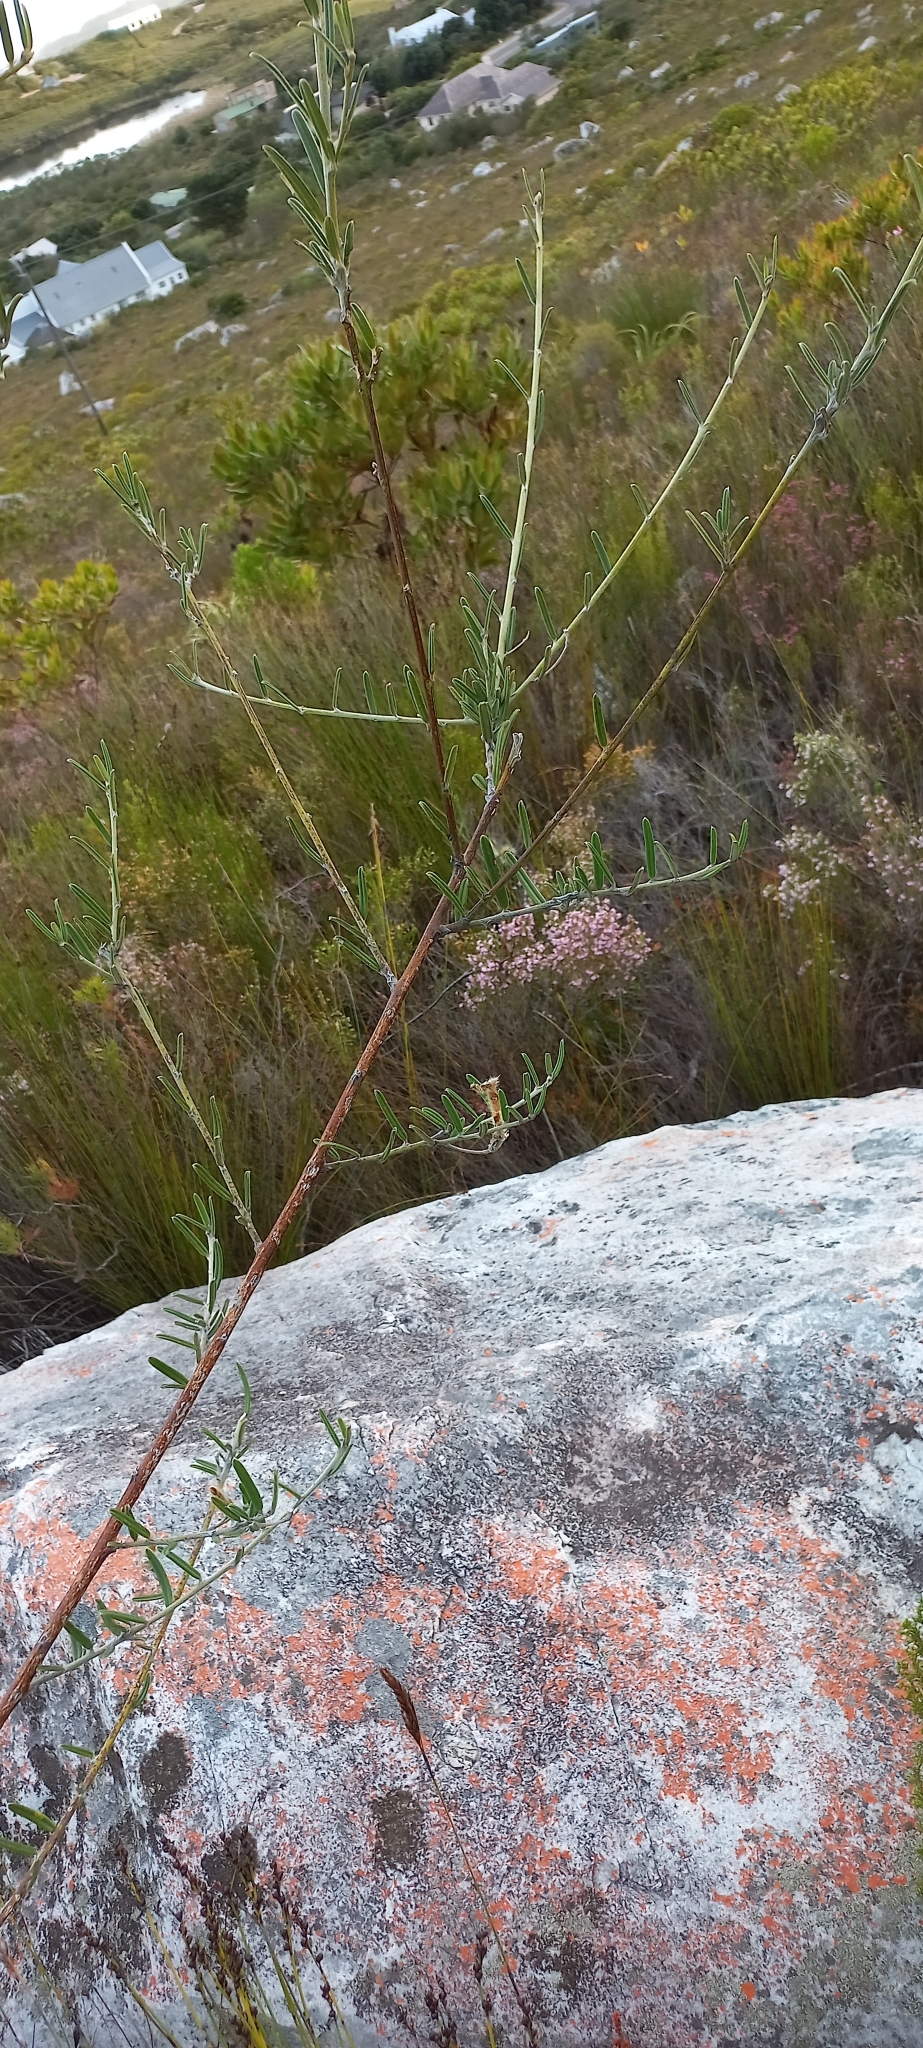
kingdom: Plantae
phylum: Tracheophyta
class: Magnoliopsida
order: Fabales
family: Fabaceae
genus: Podalyria
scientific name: Podalyria oleifolia
